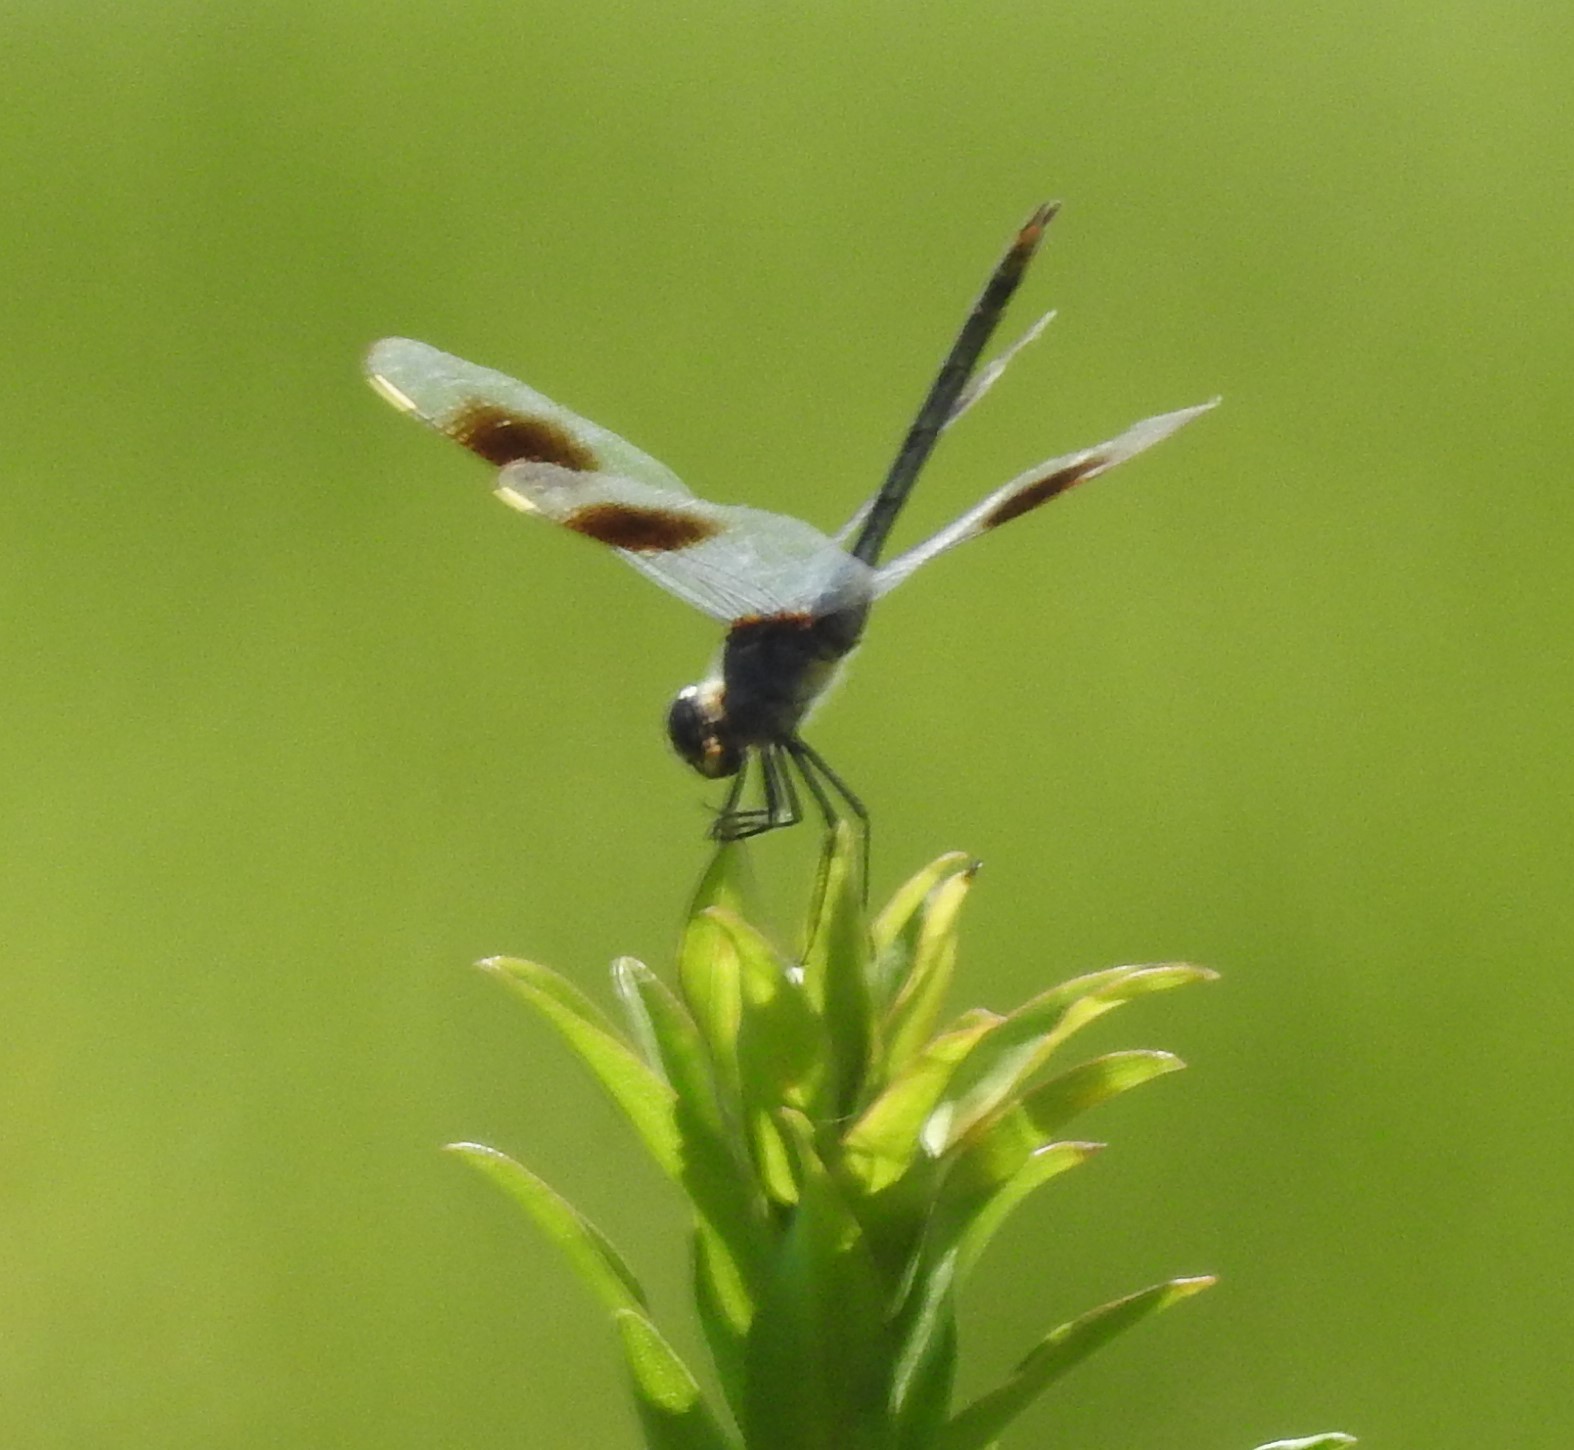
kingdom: Animalia
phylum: Arthropoda
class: Insecta
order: Odonata
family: Libellulidae
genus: Brachymesia
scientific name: Brachymesia gravida
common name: Four-spotted pennant
